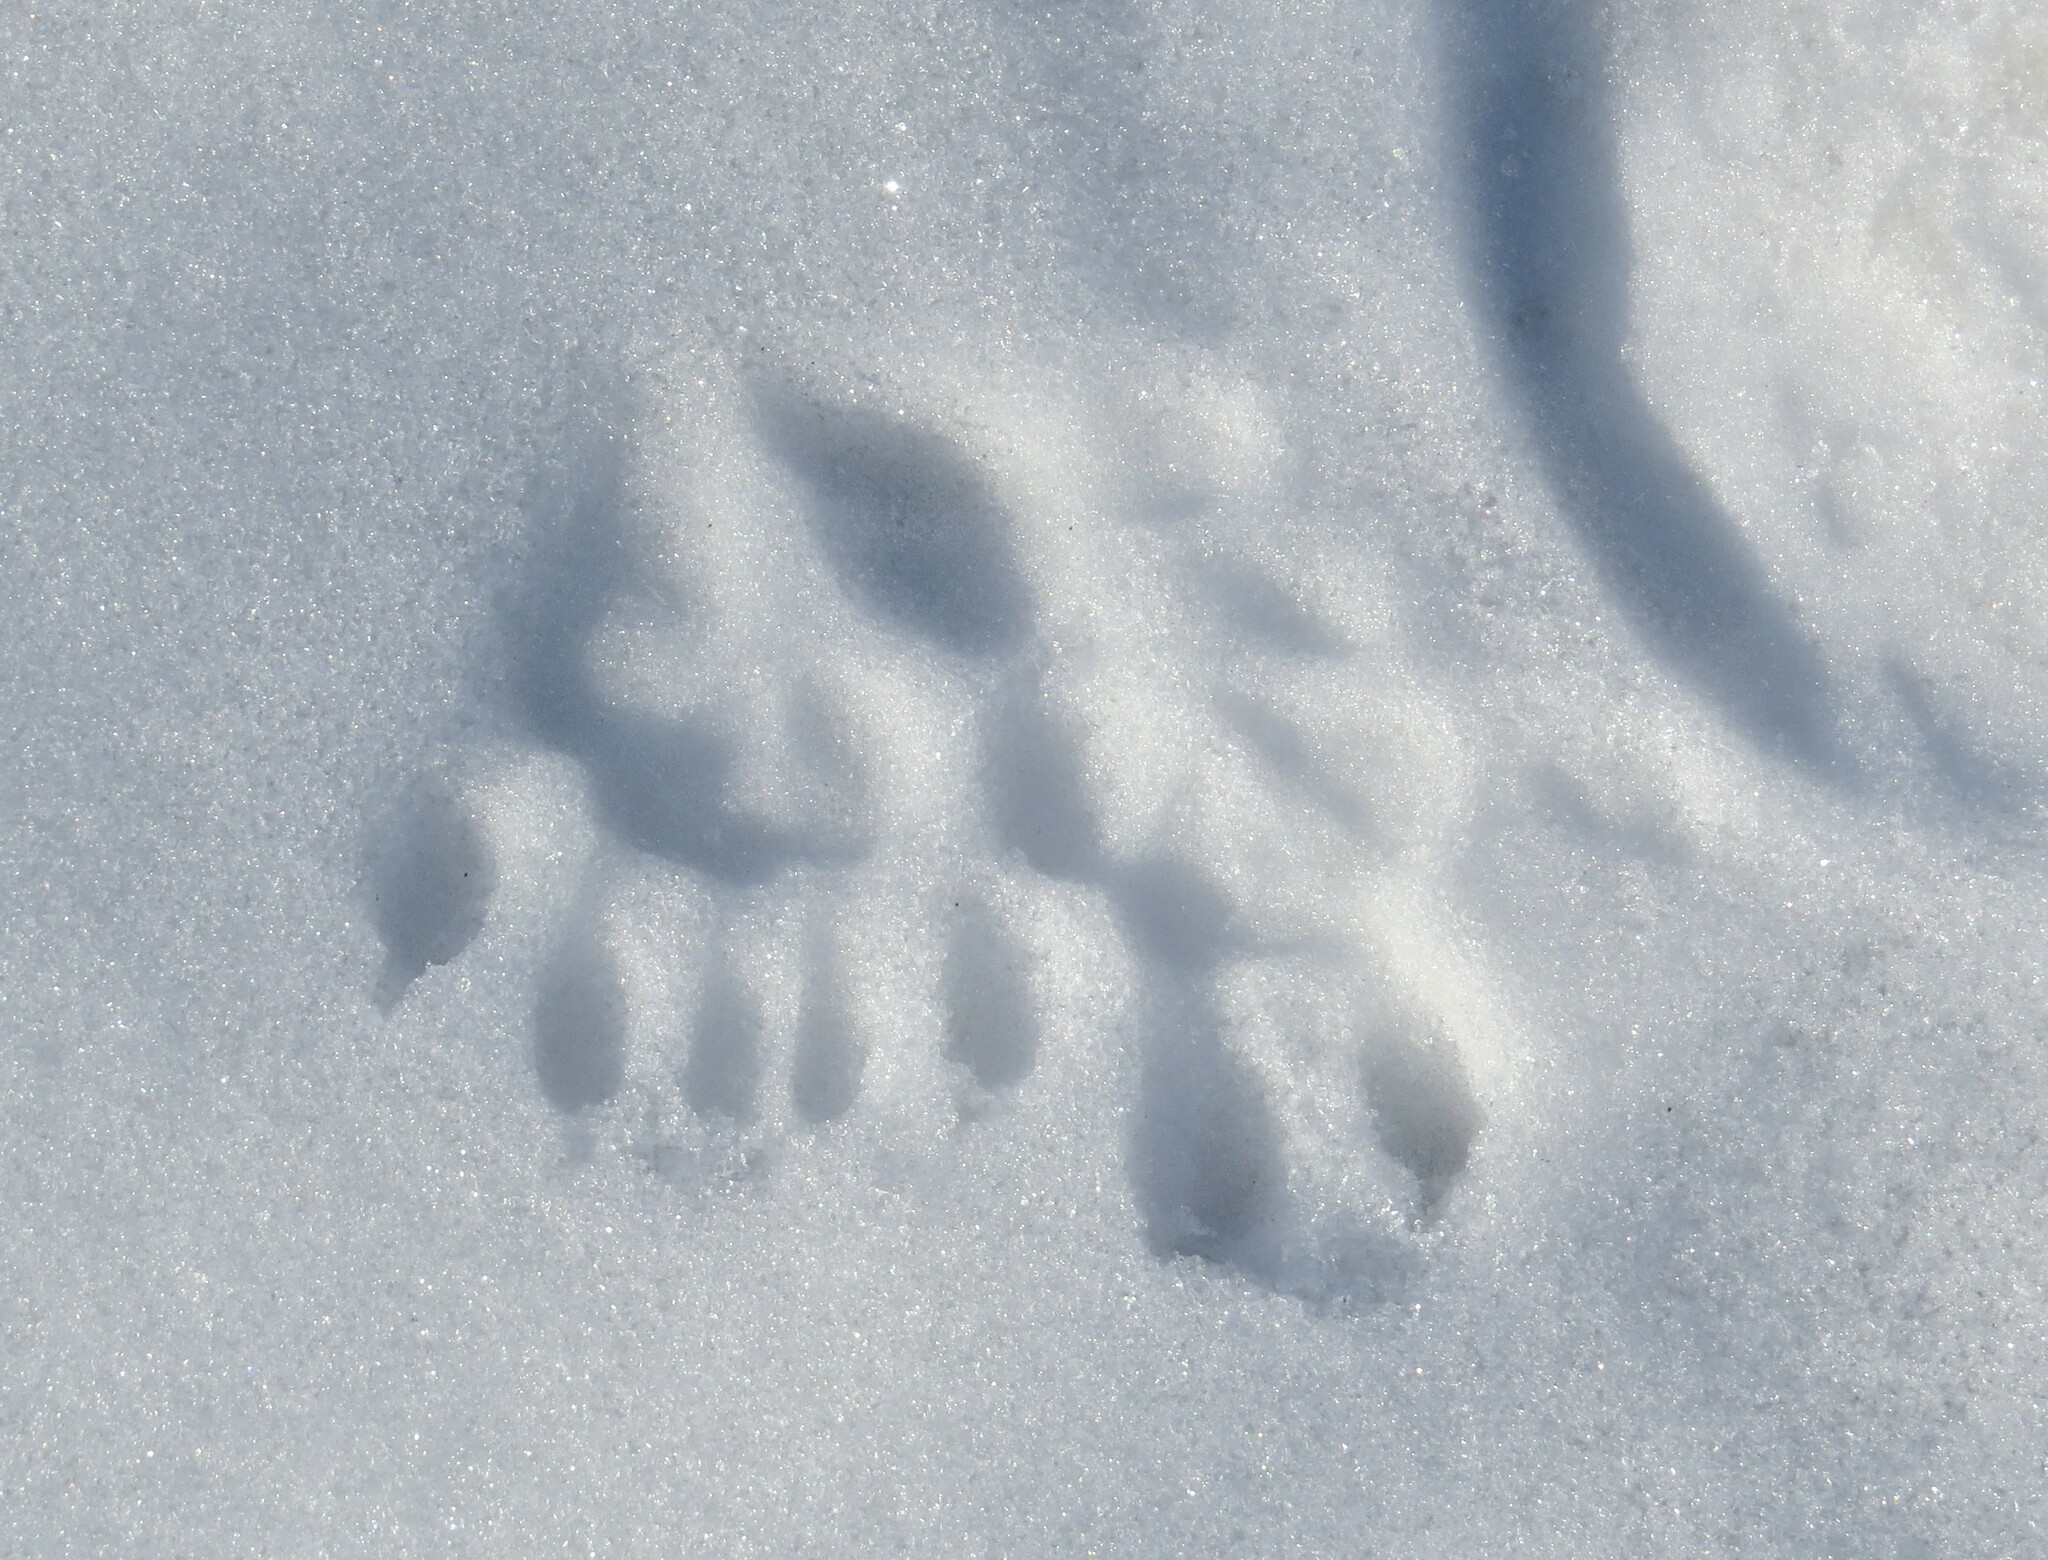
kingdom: Animalia
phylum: Chordata
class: Mammalia
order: Didelphimorphia
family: Didelphidae
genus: Didelphis
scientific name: Didelphis virginiana
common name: Virginia opossum
